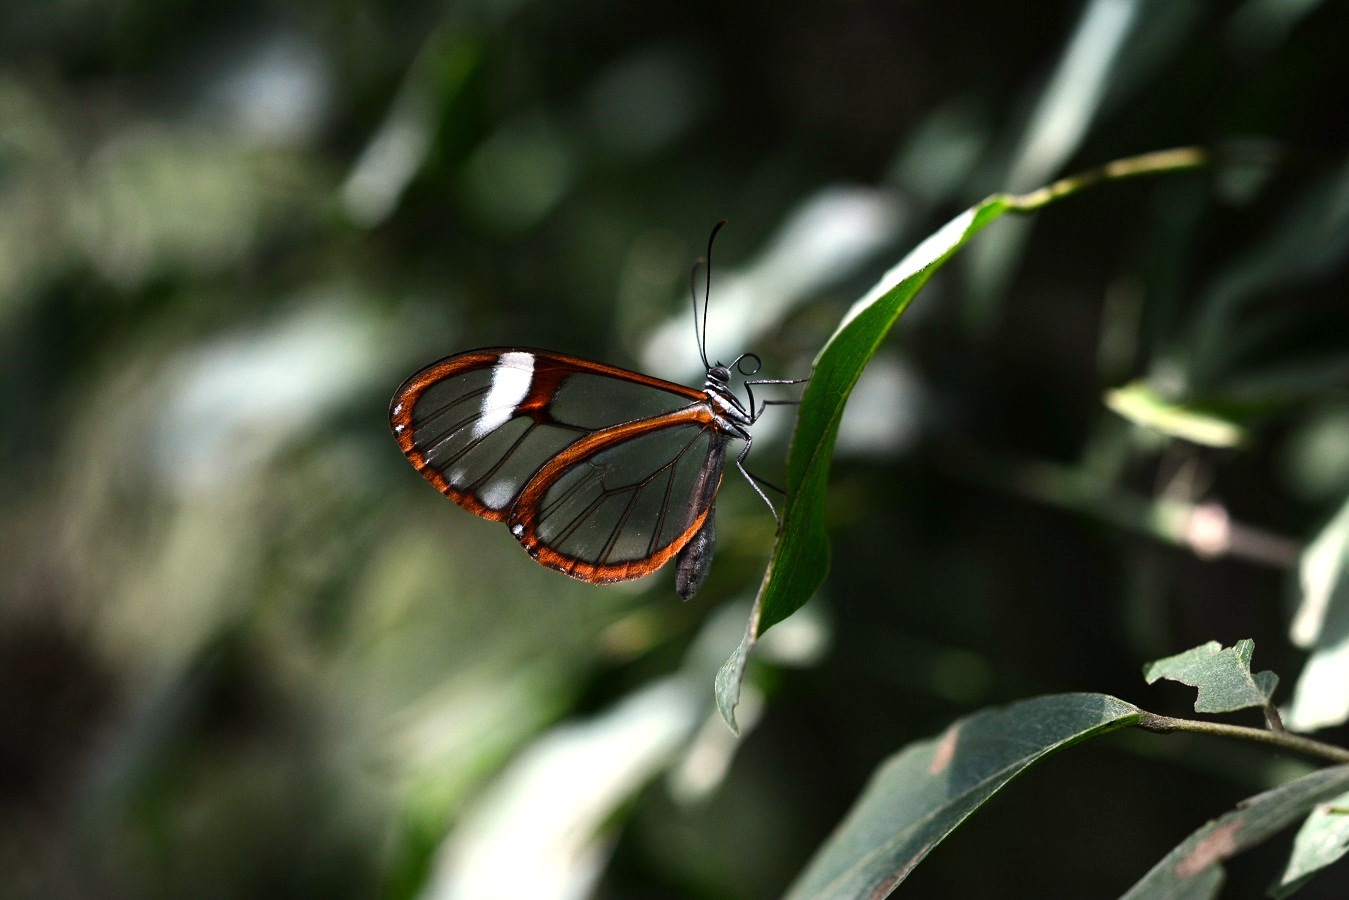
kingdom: Animalia
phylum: Arthropoda
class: Insecta
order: Lepidoptera
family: Nymphalidae
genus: Episcada
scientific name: Episcada salvinia
